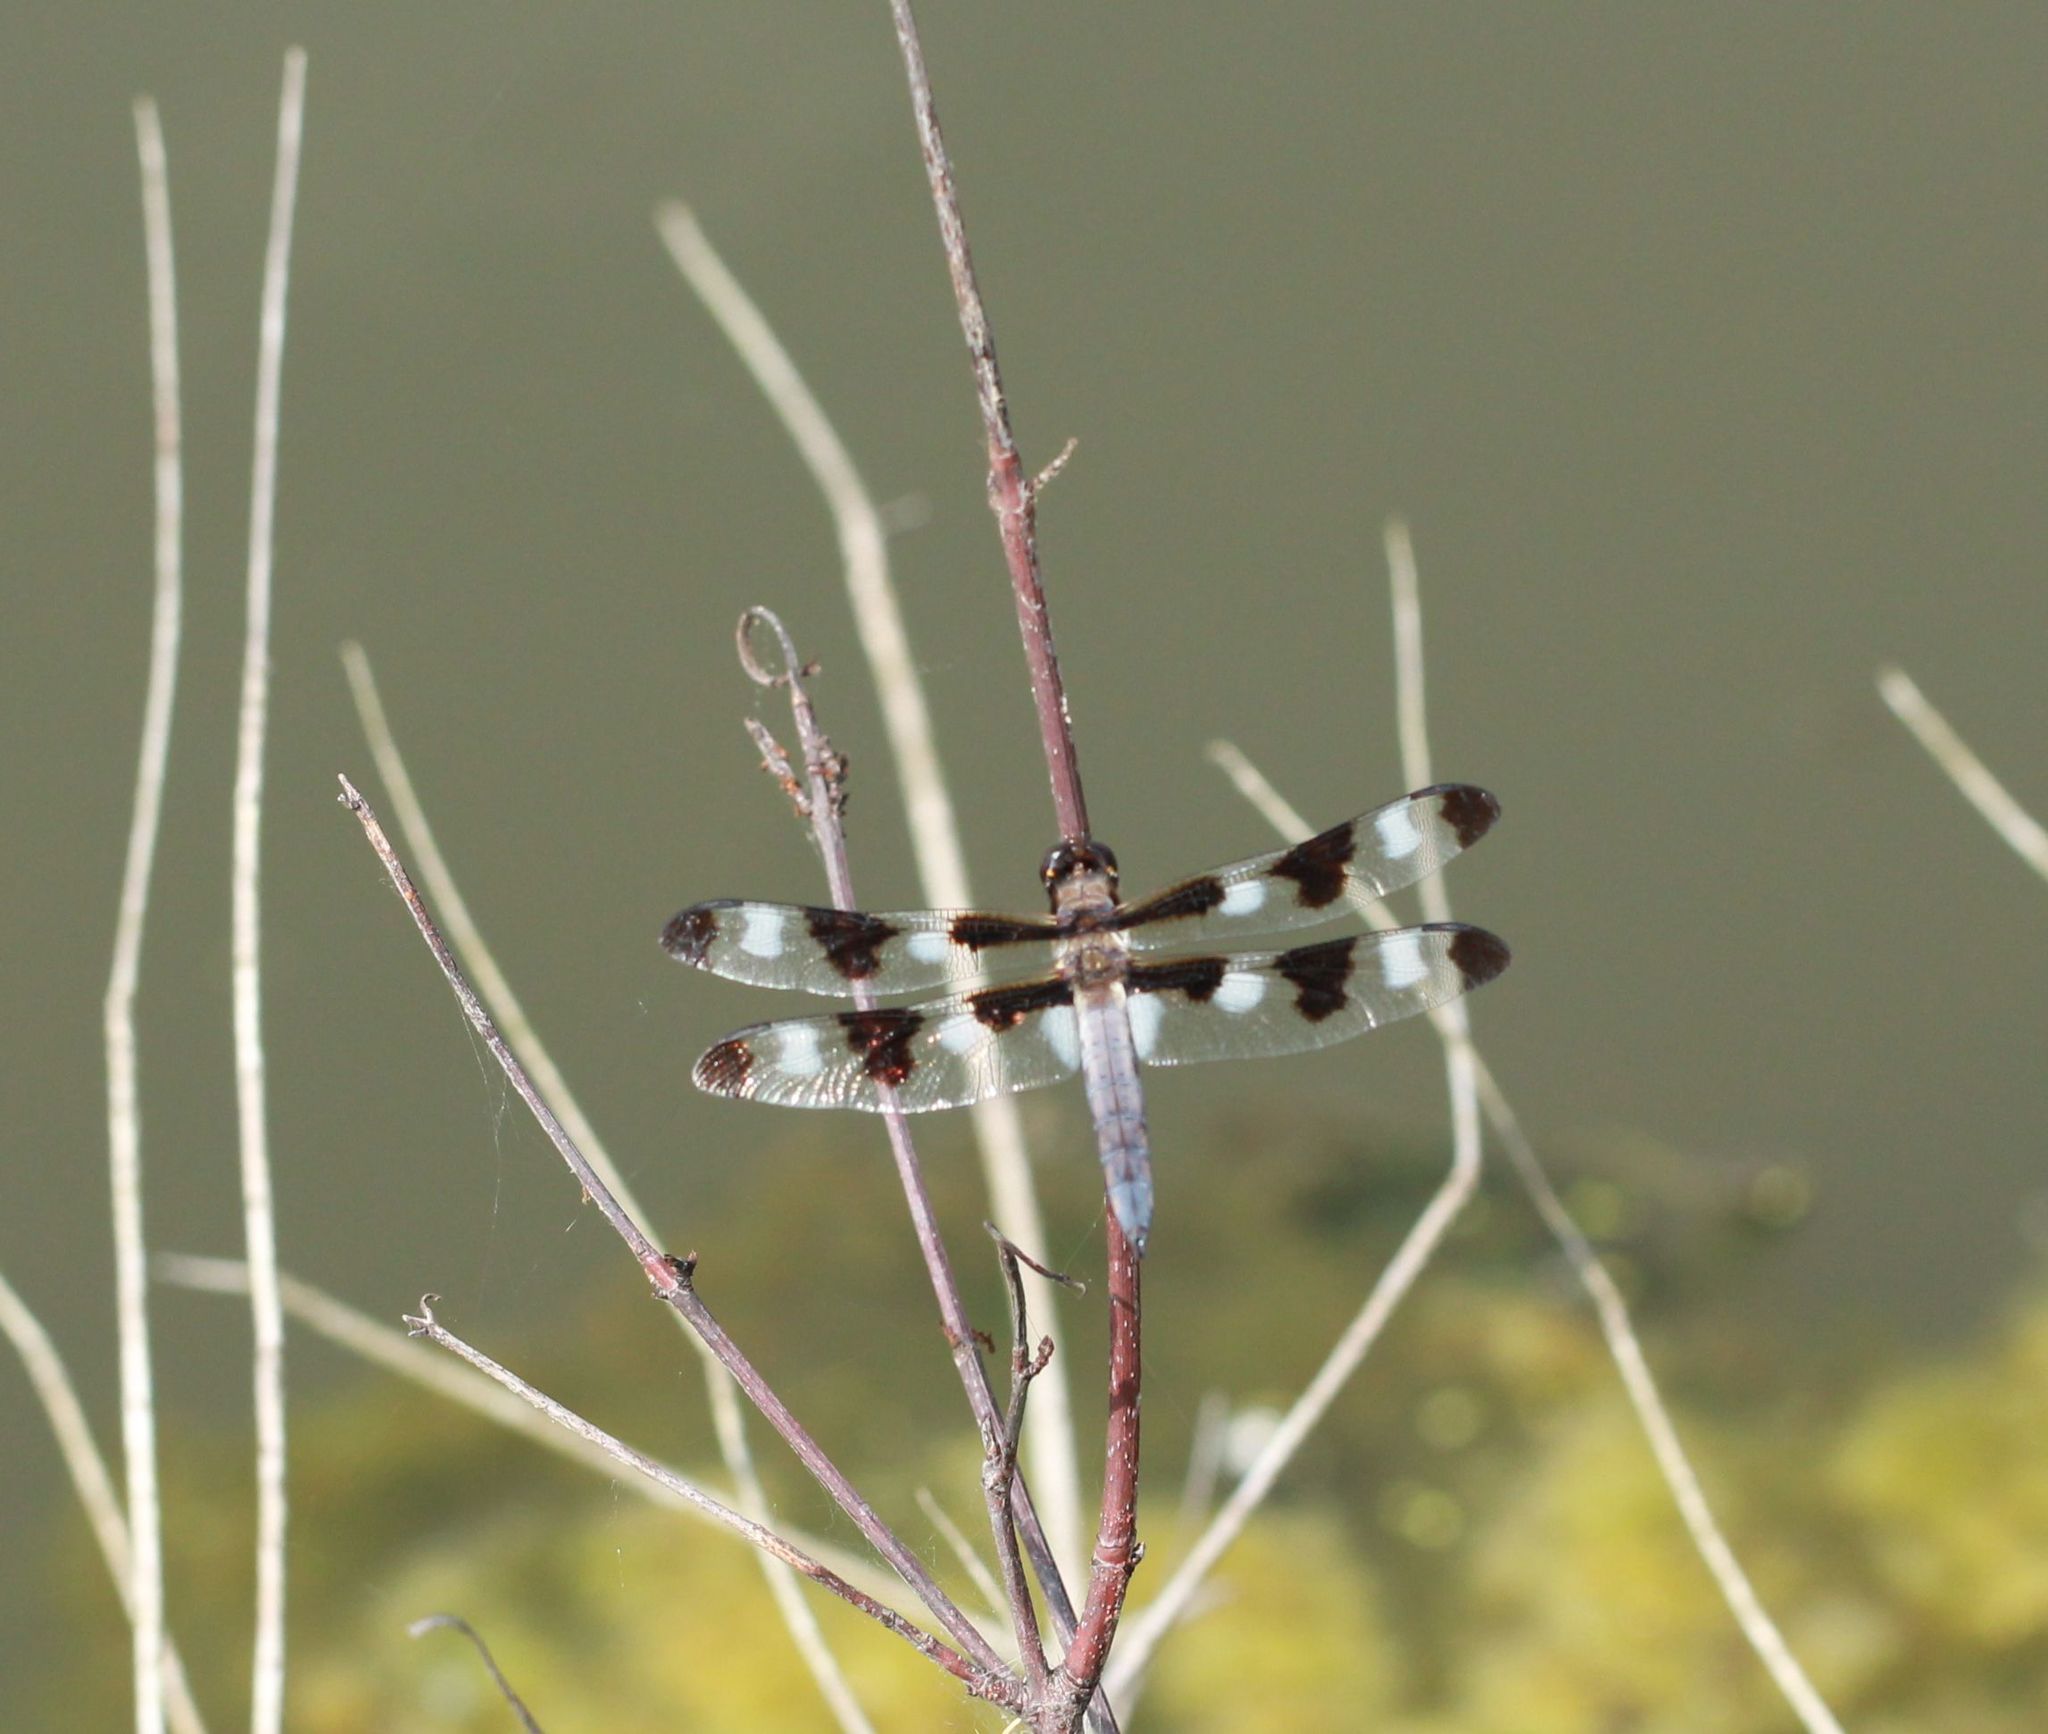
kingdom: Animalia
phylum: Arthropoda
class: Insecta
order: Odonata
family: Libellulidae
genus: Libellula
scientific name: Libellula pulchella
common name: Twelve-spotted skimmer
